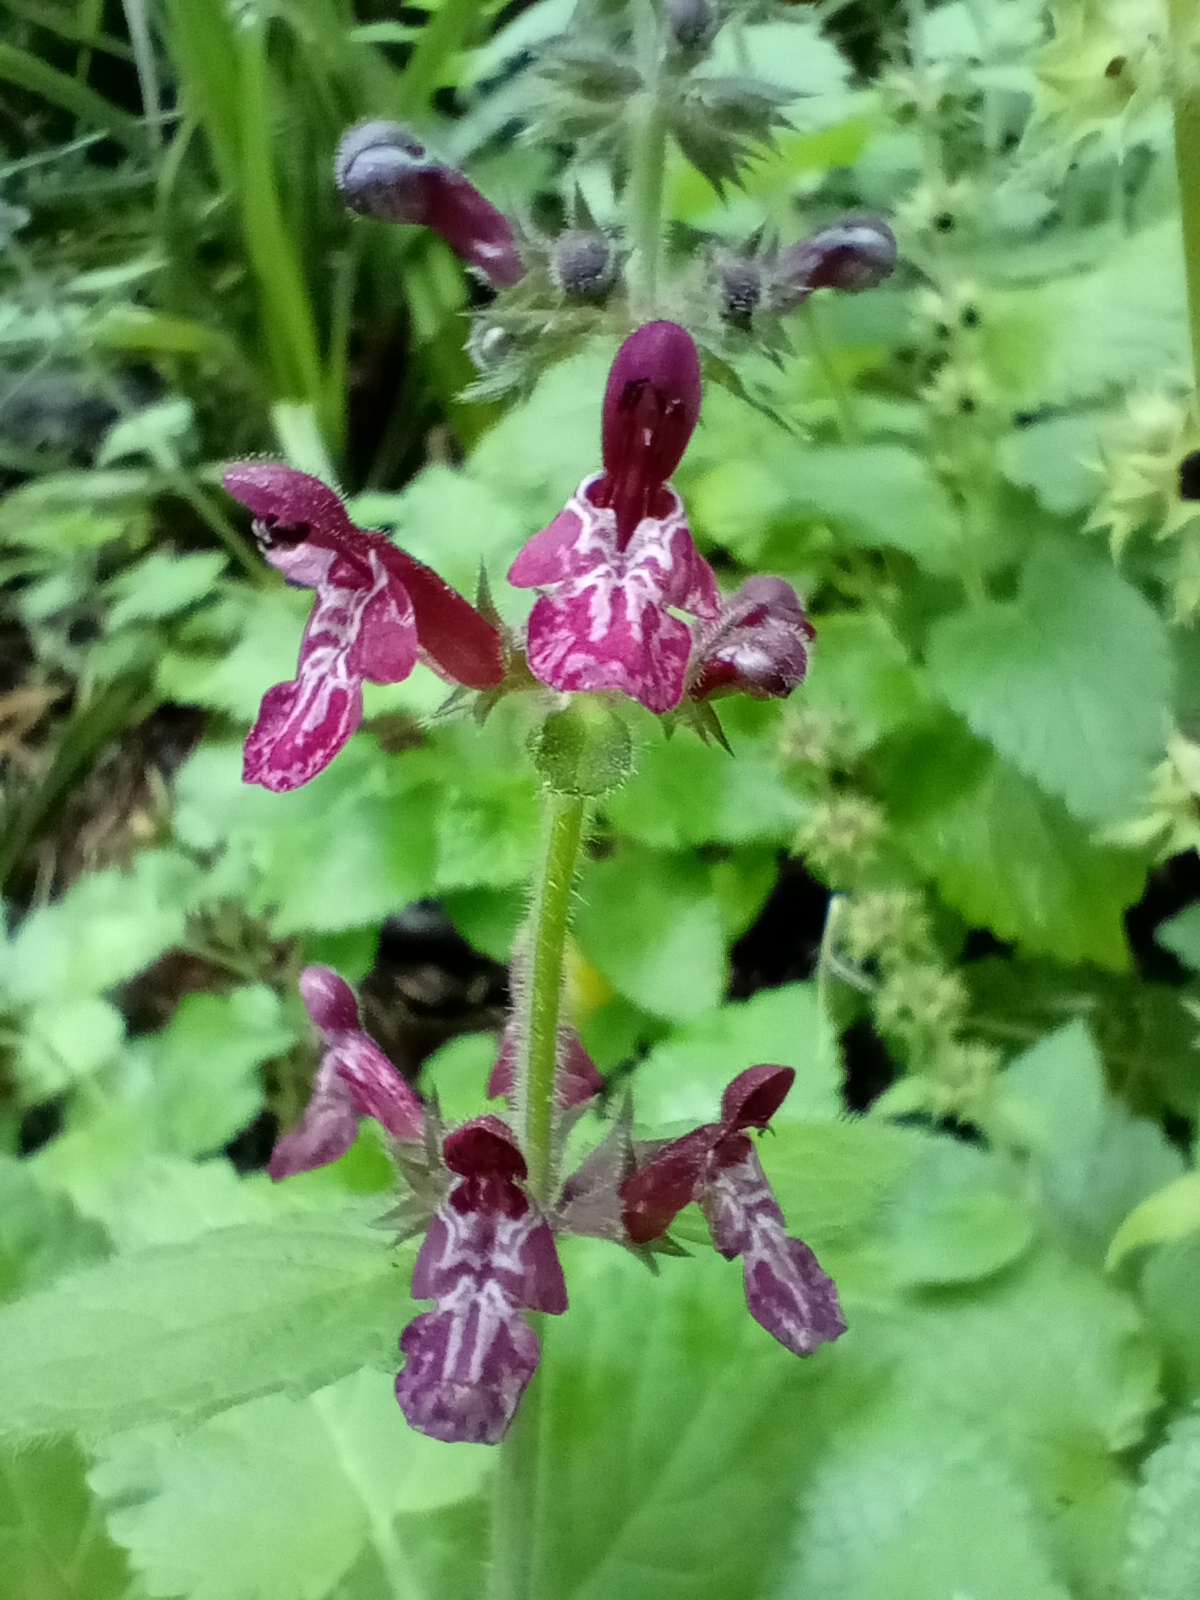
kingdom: Plantae
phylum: Tracheophyta
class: Magnoliopsida
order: Lamiales
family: Lamiaceae
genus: Stachys
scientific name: Stachys sylvatica
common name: Hedge woundwort
